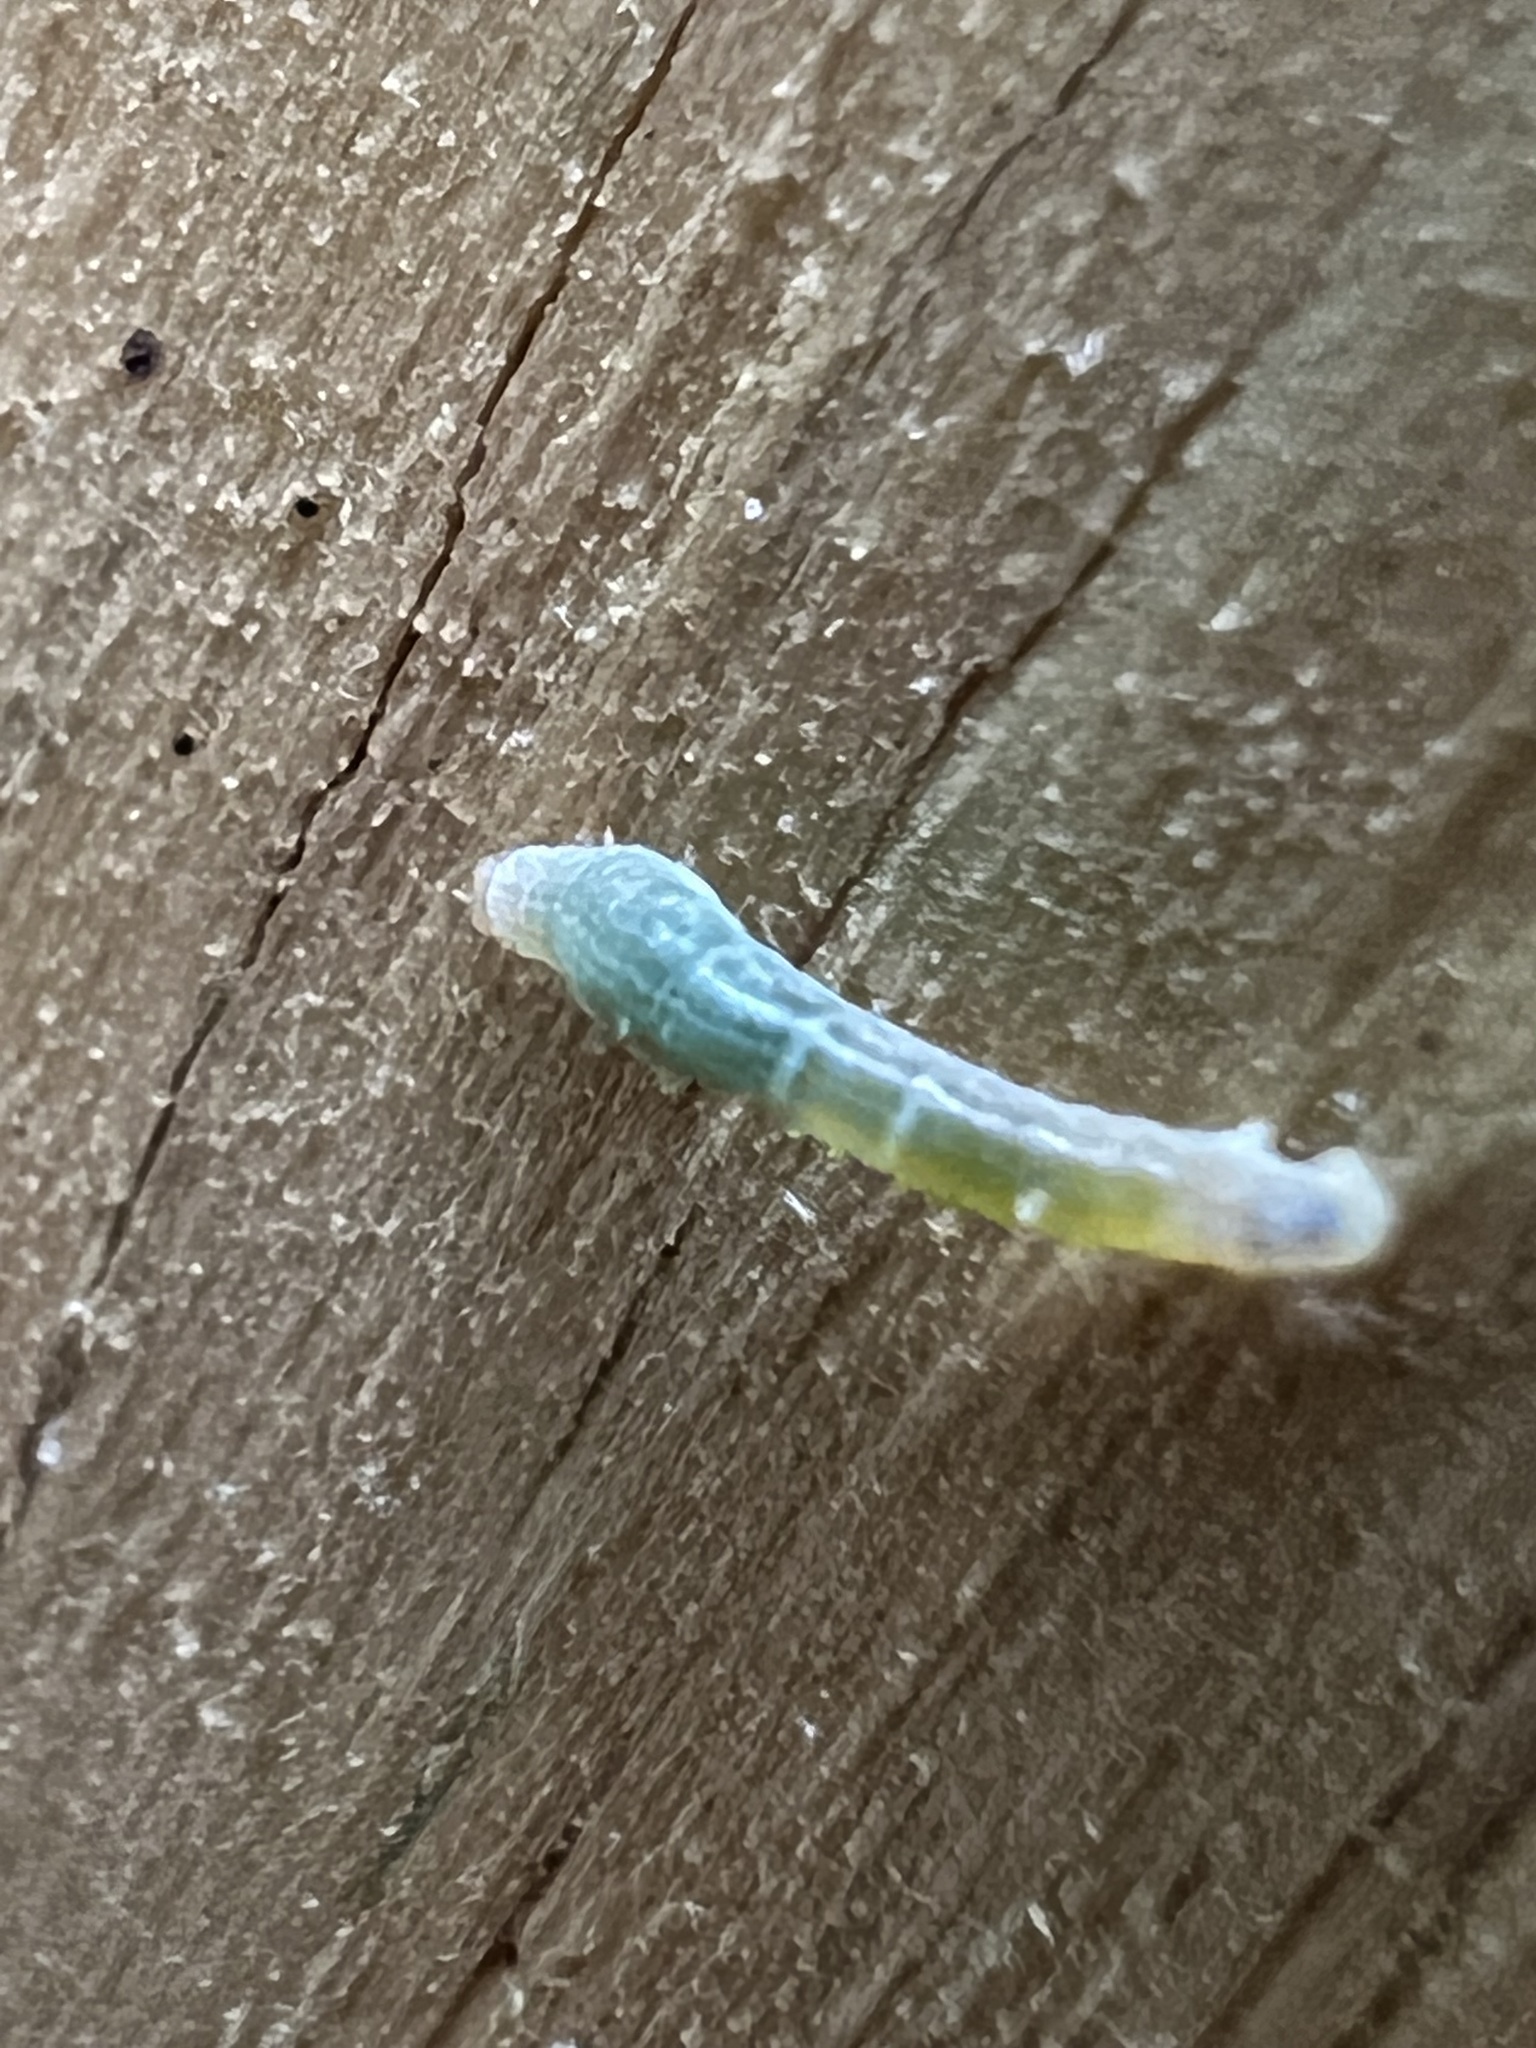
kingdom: Animalia
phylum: Arthropoda
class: Insecta
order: Lepidoptera
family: Geometridae
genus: Epimecis
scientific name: Epimecis hortaria
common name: Tulip-tree beauty
